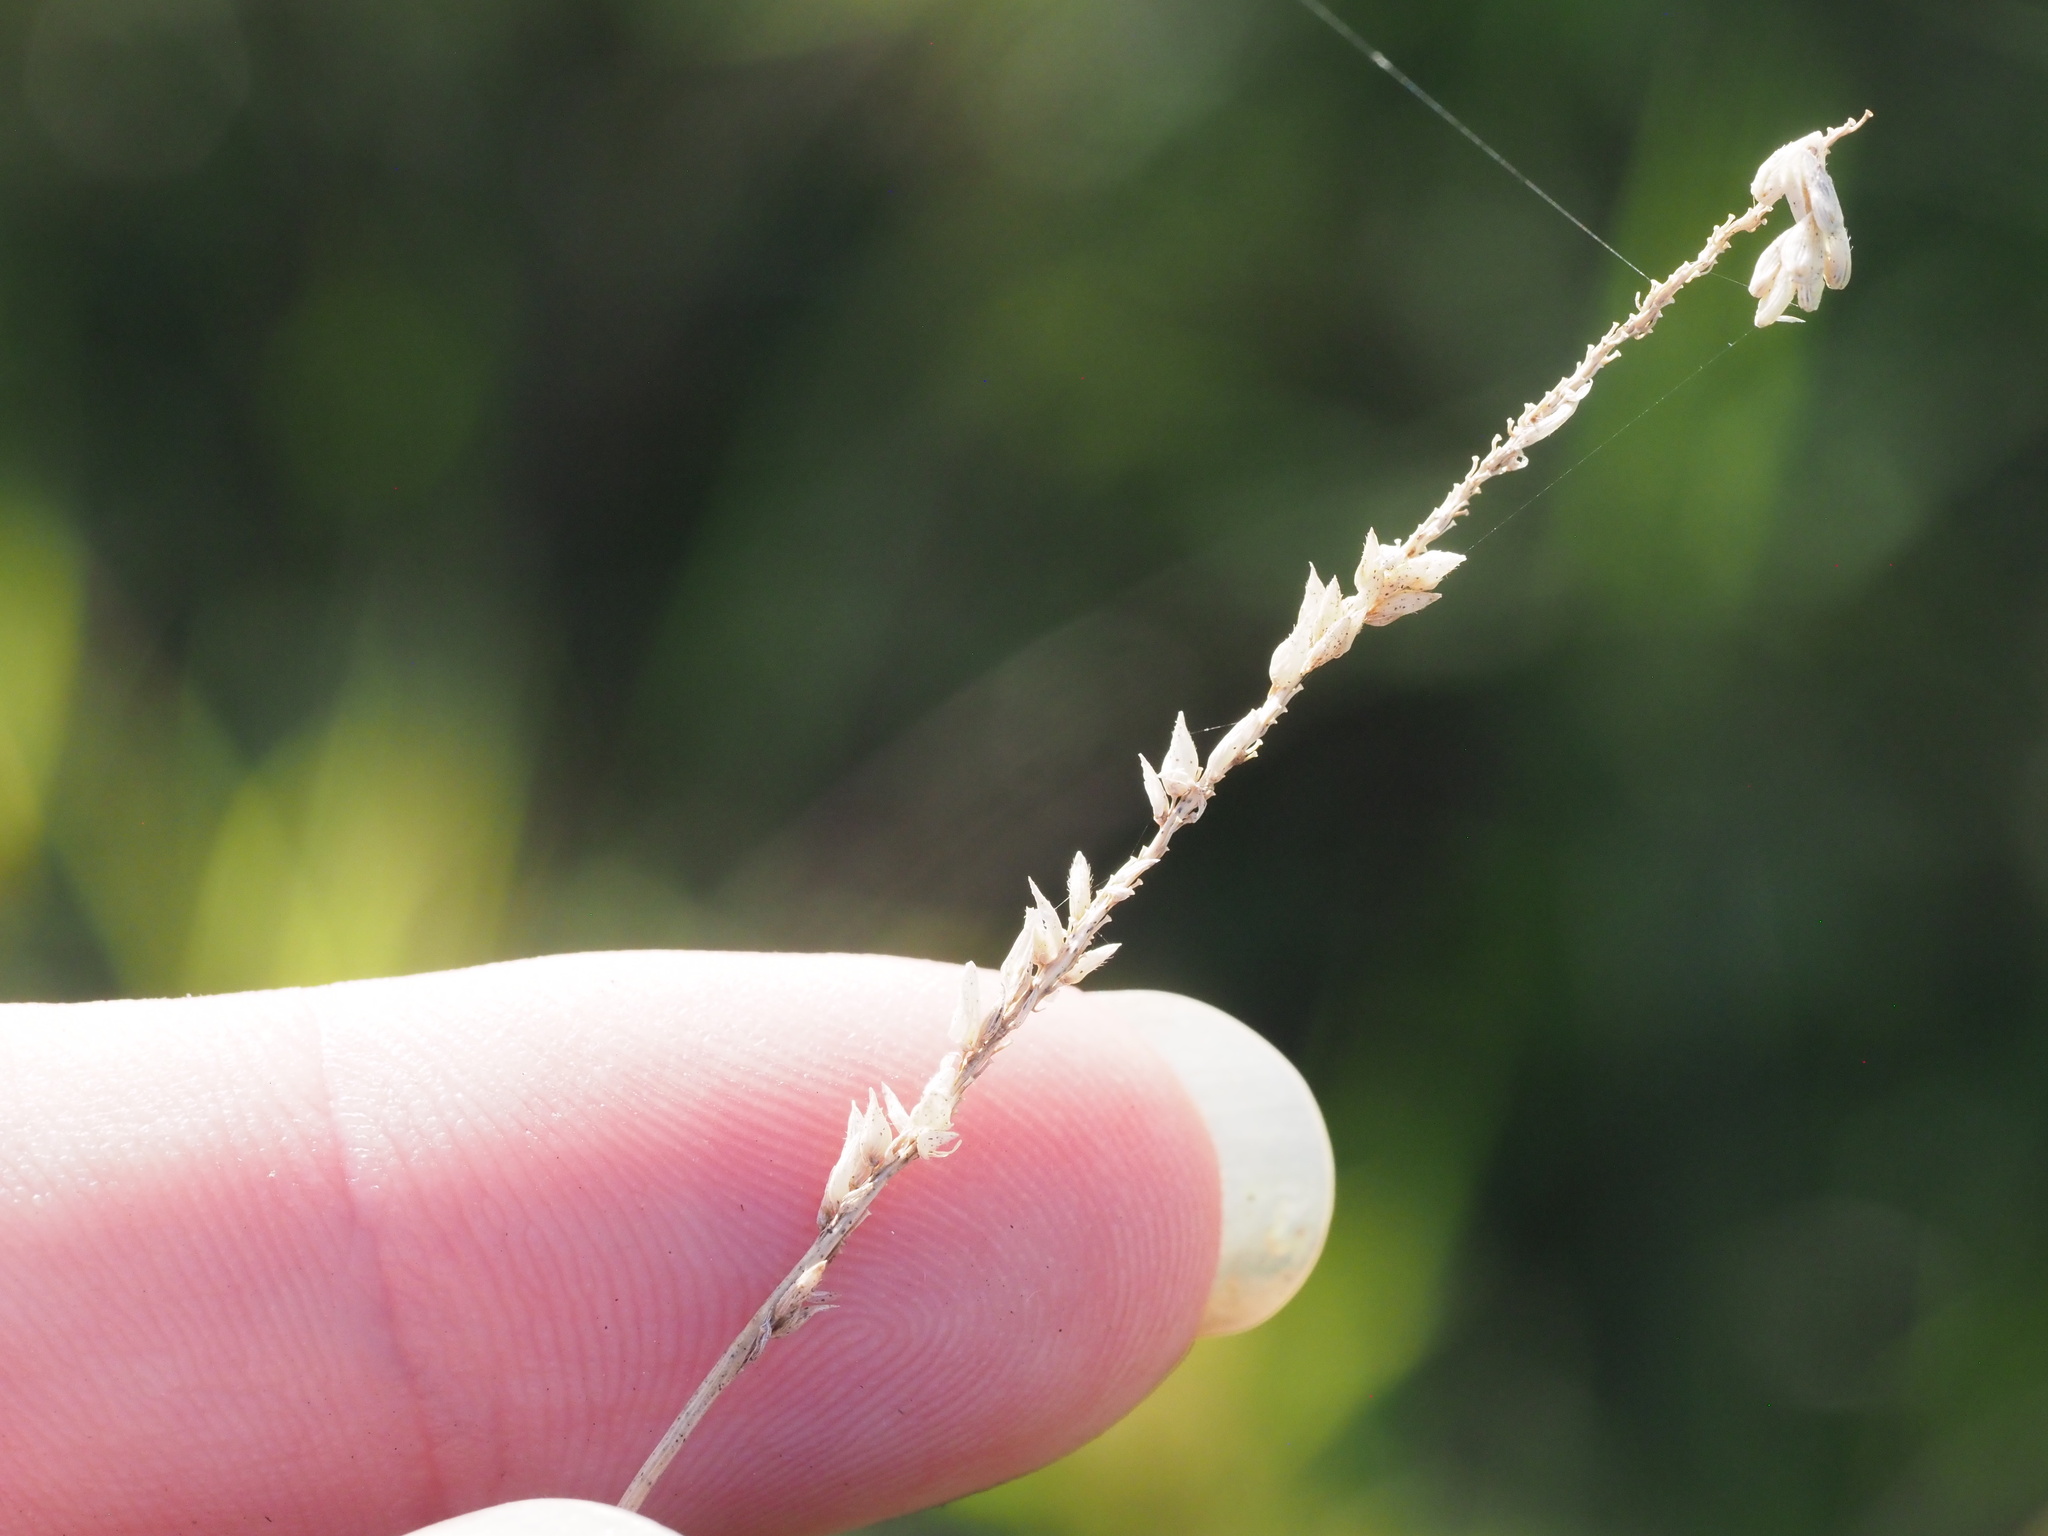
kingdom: Plantae
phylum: Tracheophyta
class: Liliopsida
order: Poales
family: Poaceae
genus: Sacciolepis
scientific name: Sacciolepis indica
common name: Glenwoodgrass
